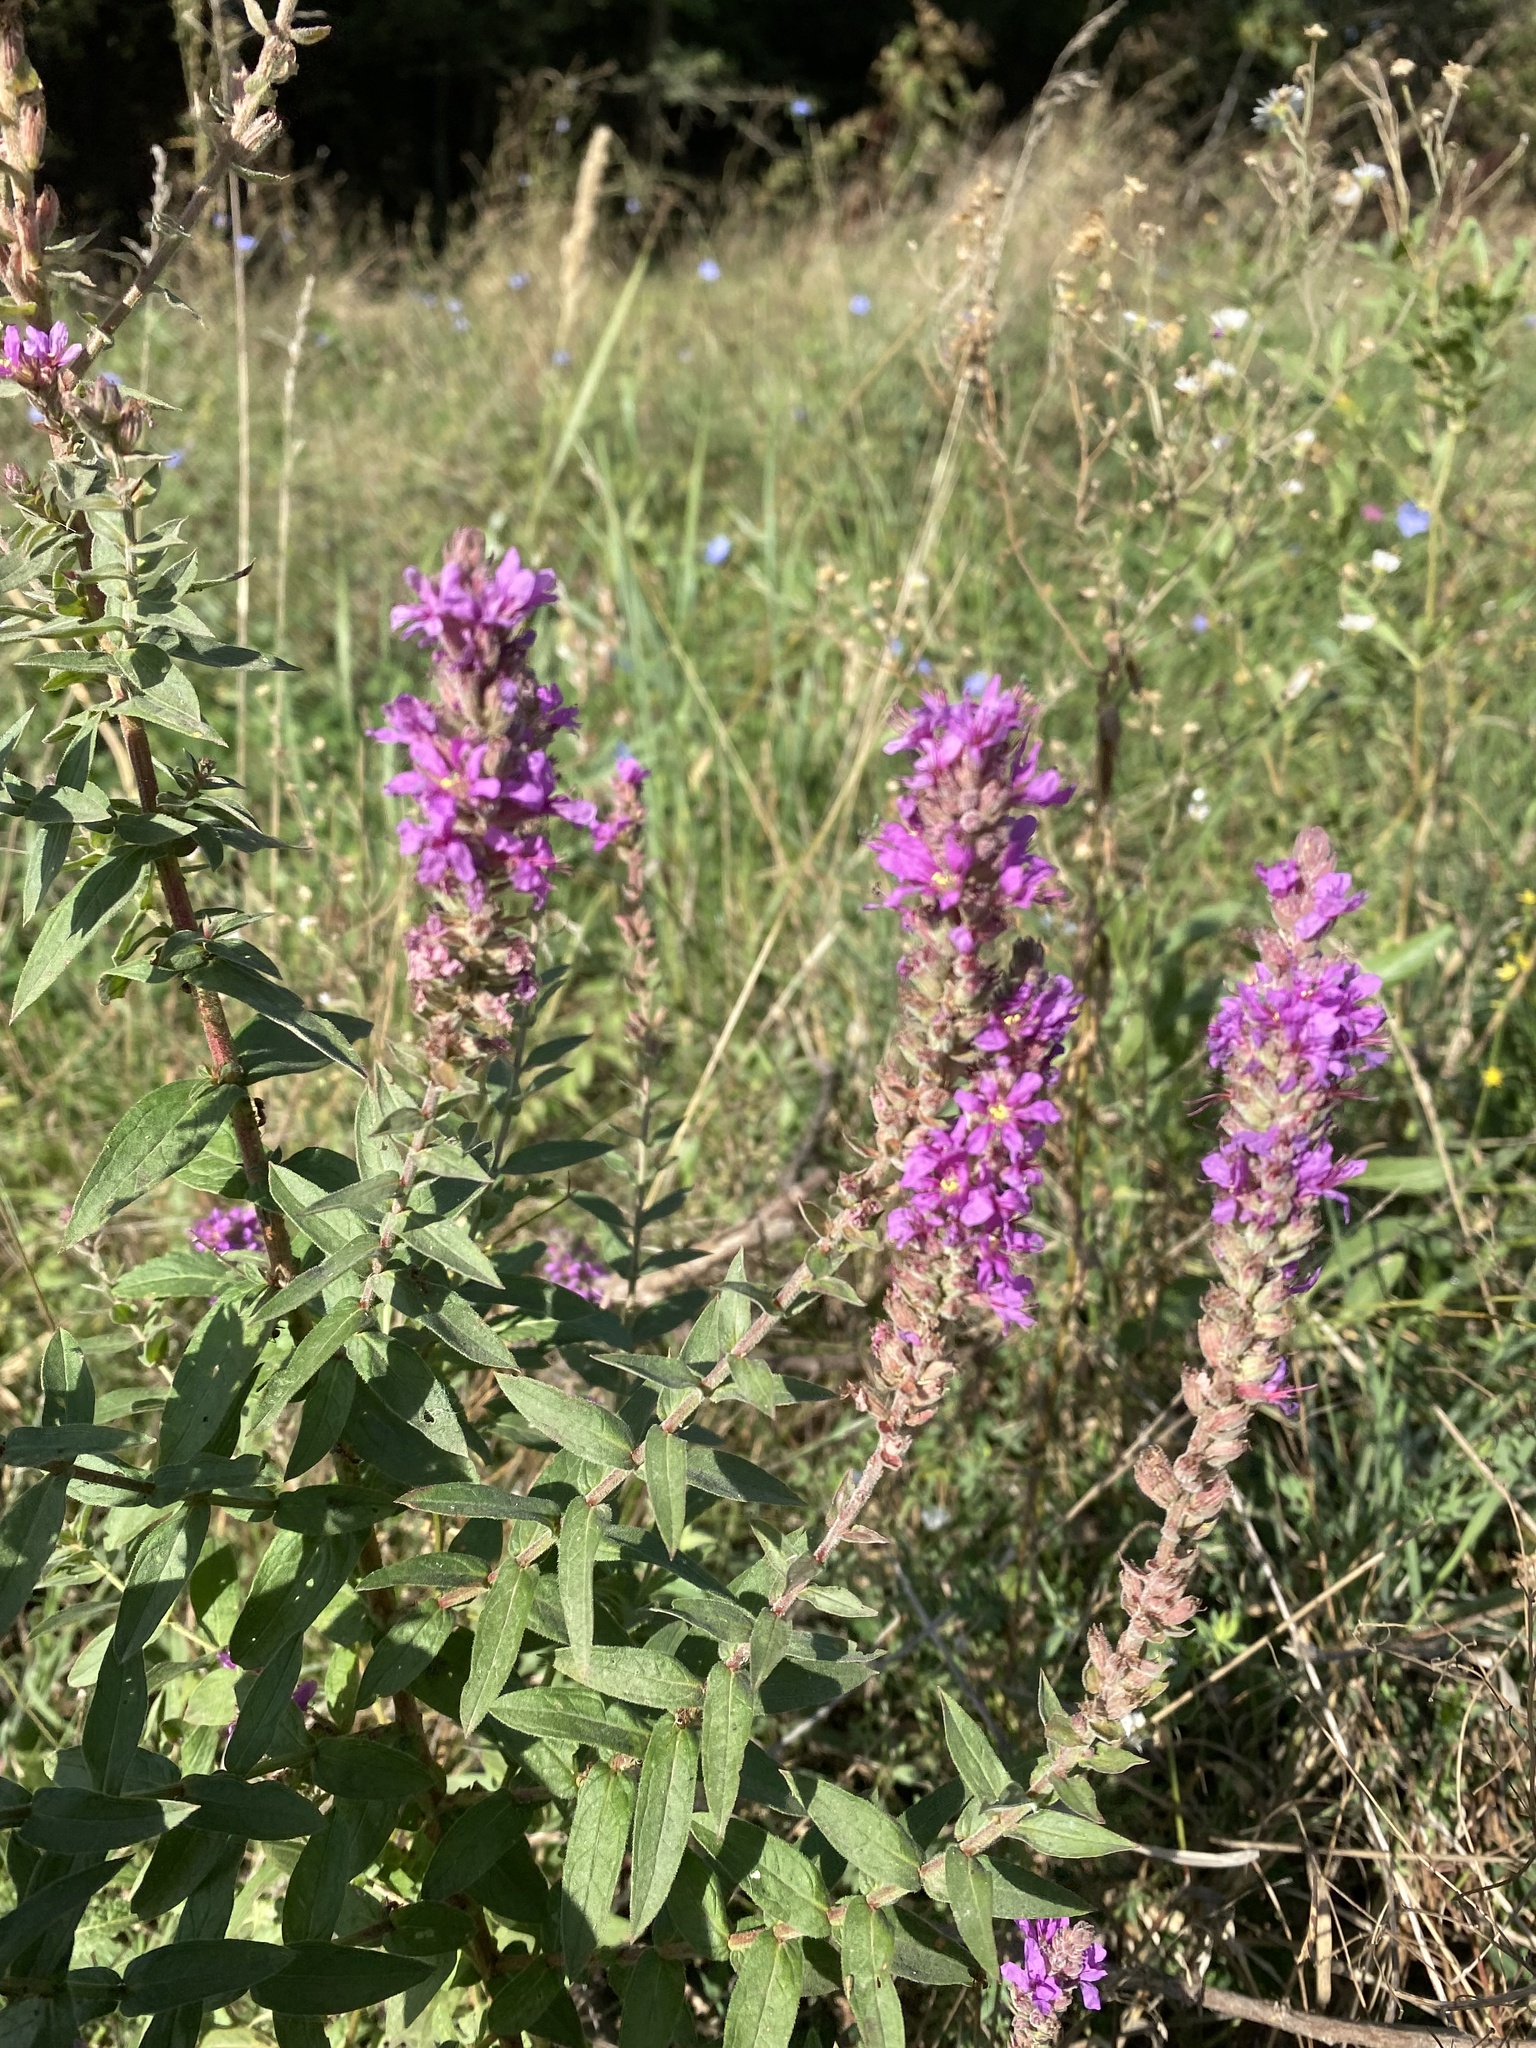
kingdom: Plantae
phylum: Tracheophyta
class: Magnoliopsida
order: Myrtales
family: Lythraceae
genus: Lythrum
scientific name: Lythrum salicaria
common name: Purple loosestrife
